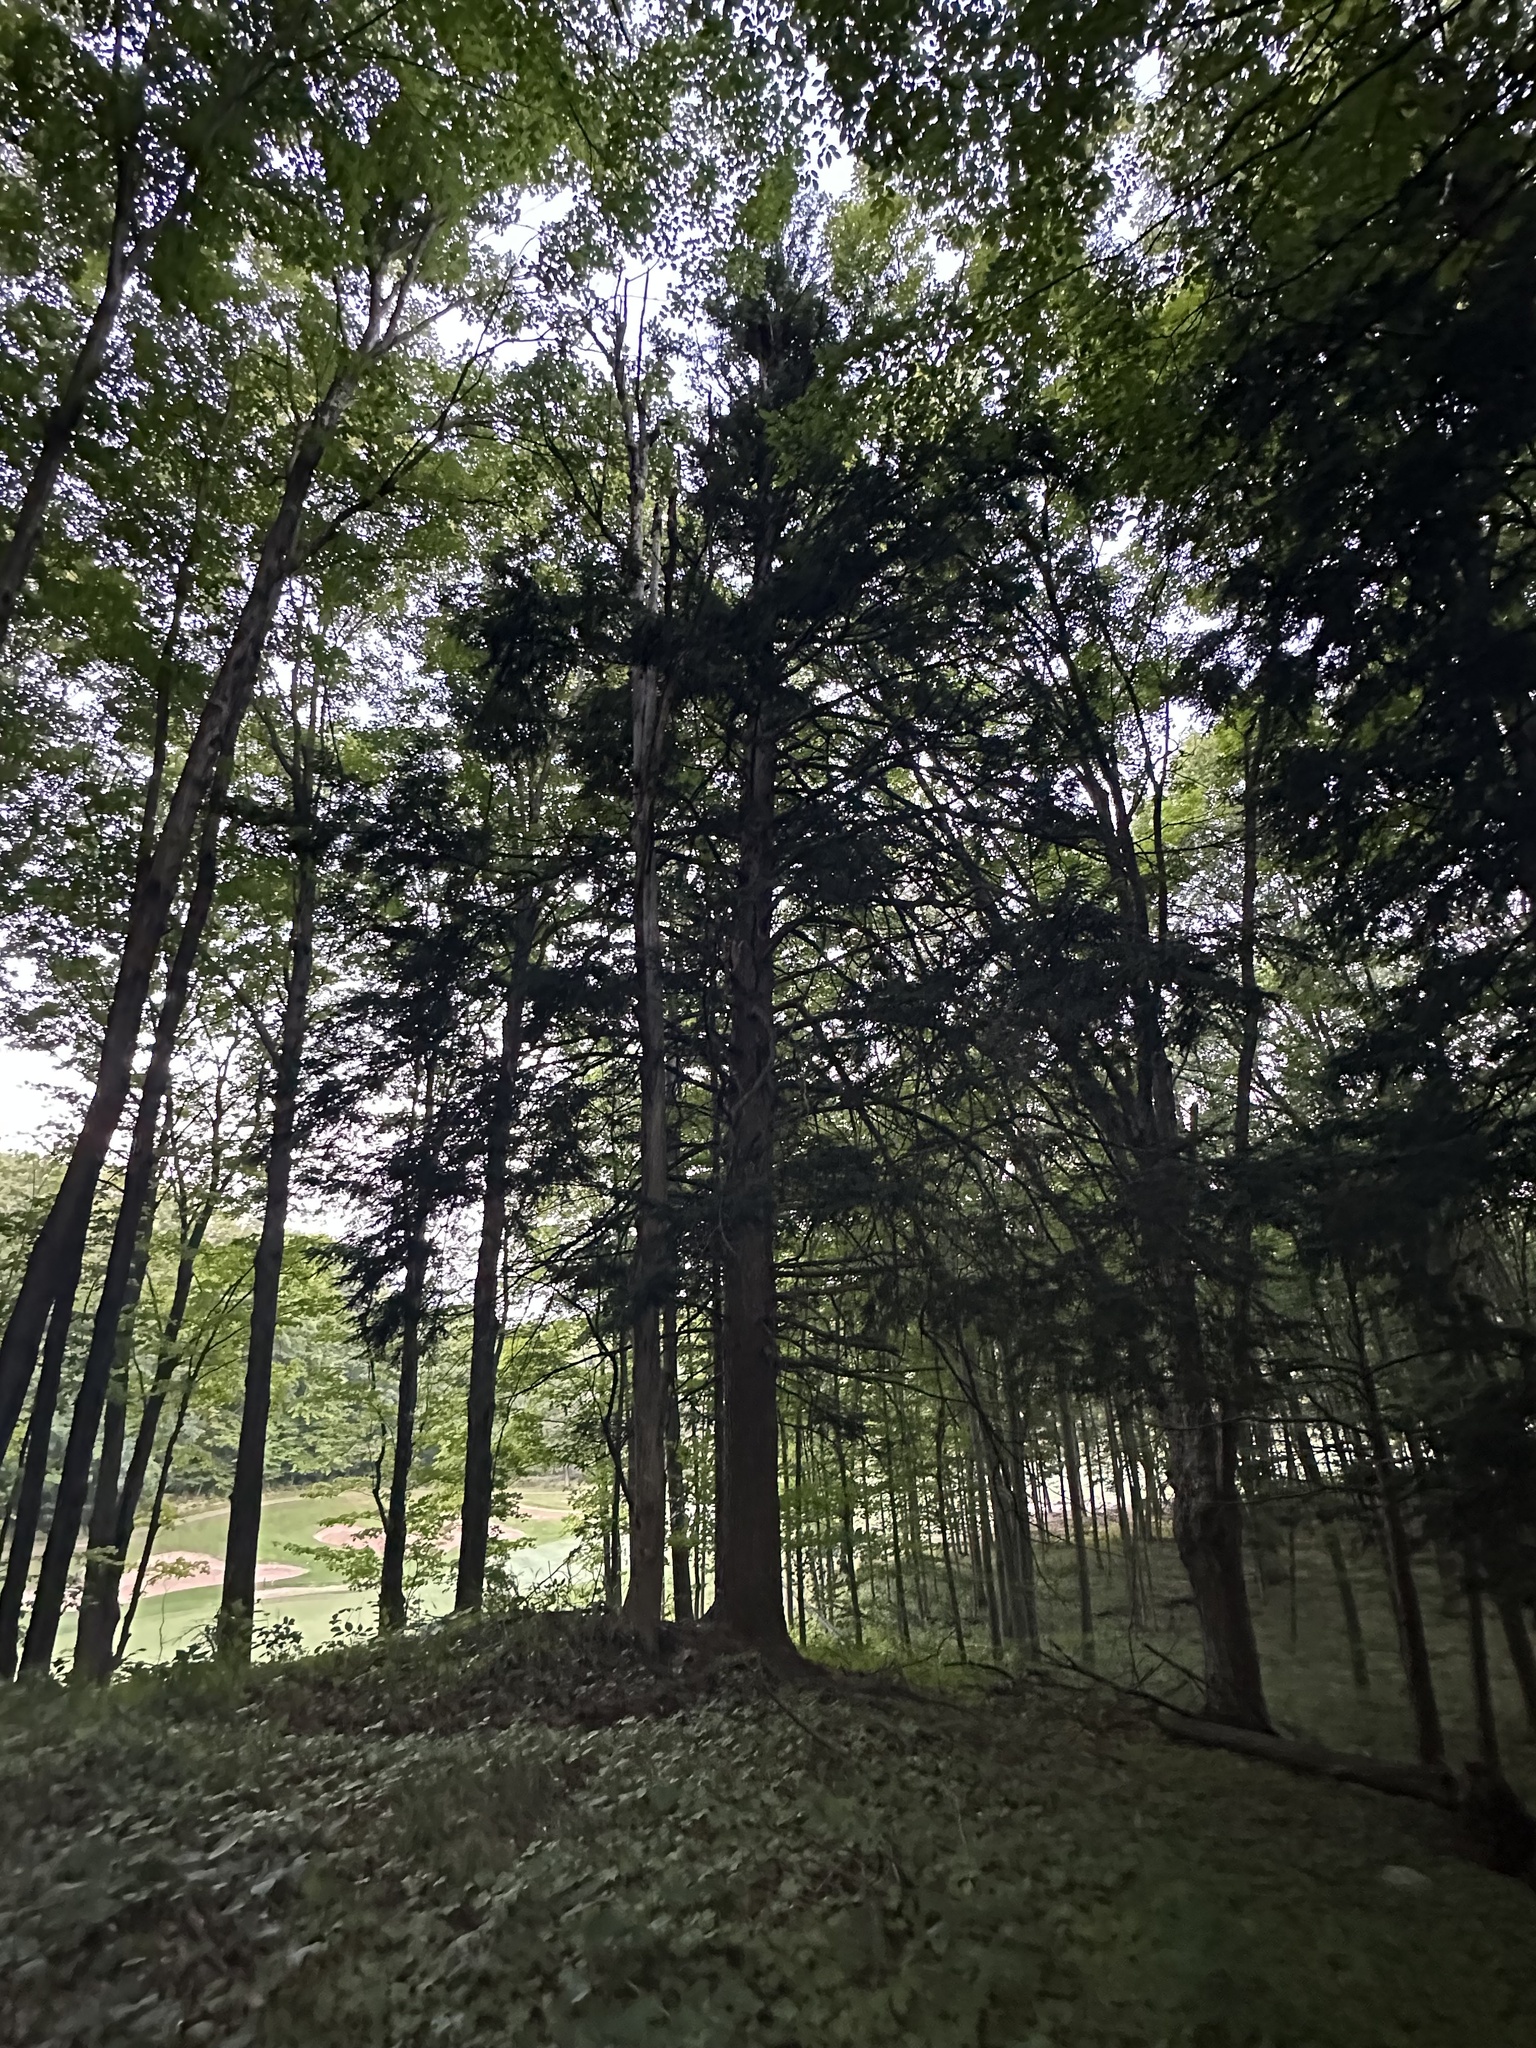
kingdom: Plantae
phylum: Tracheophyta
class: Pinopsida
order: Pinales
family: Pinaceae
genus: Tsuga
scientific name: Tsuga canadensis
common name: Eastern hemlock
